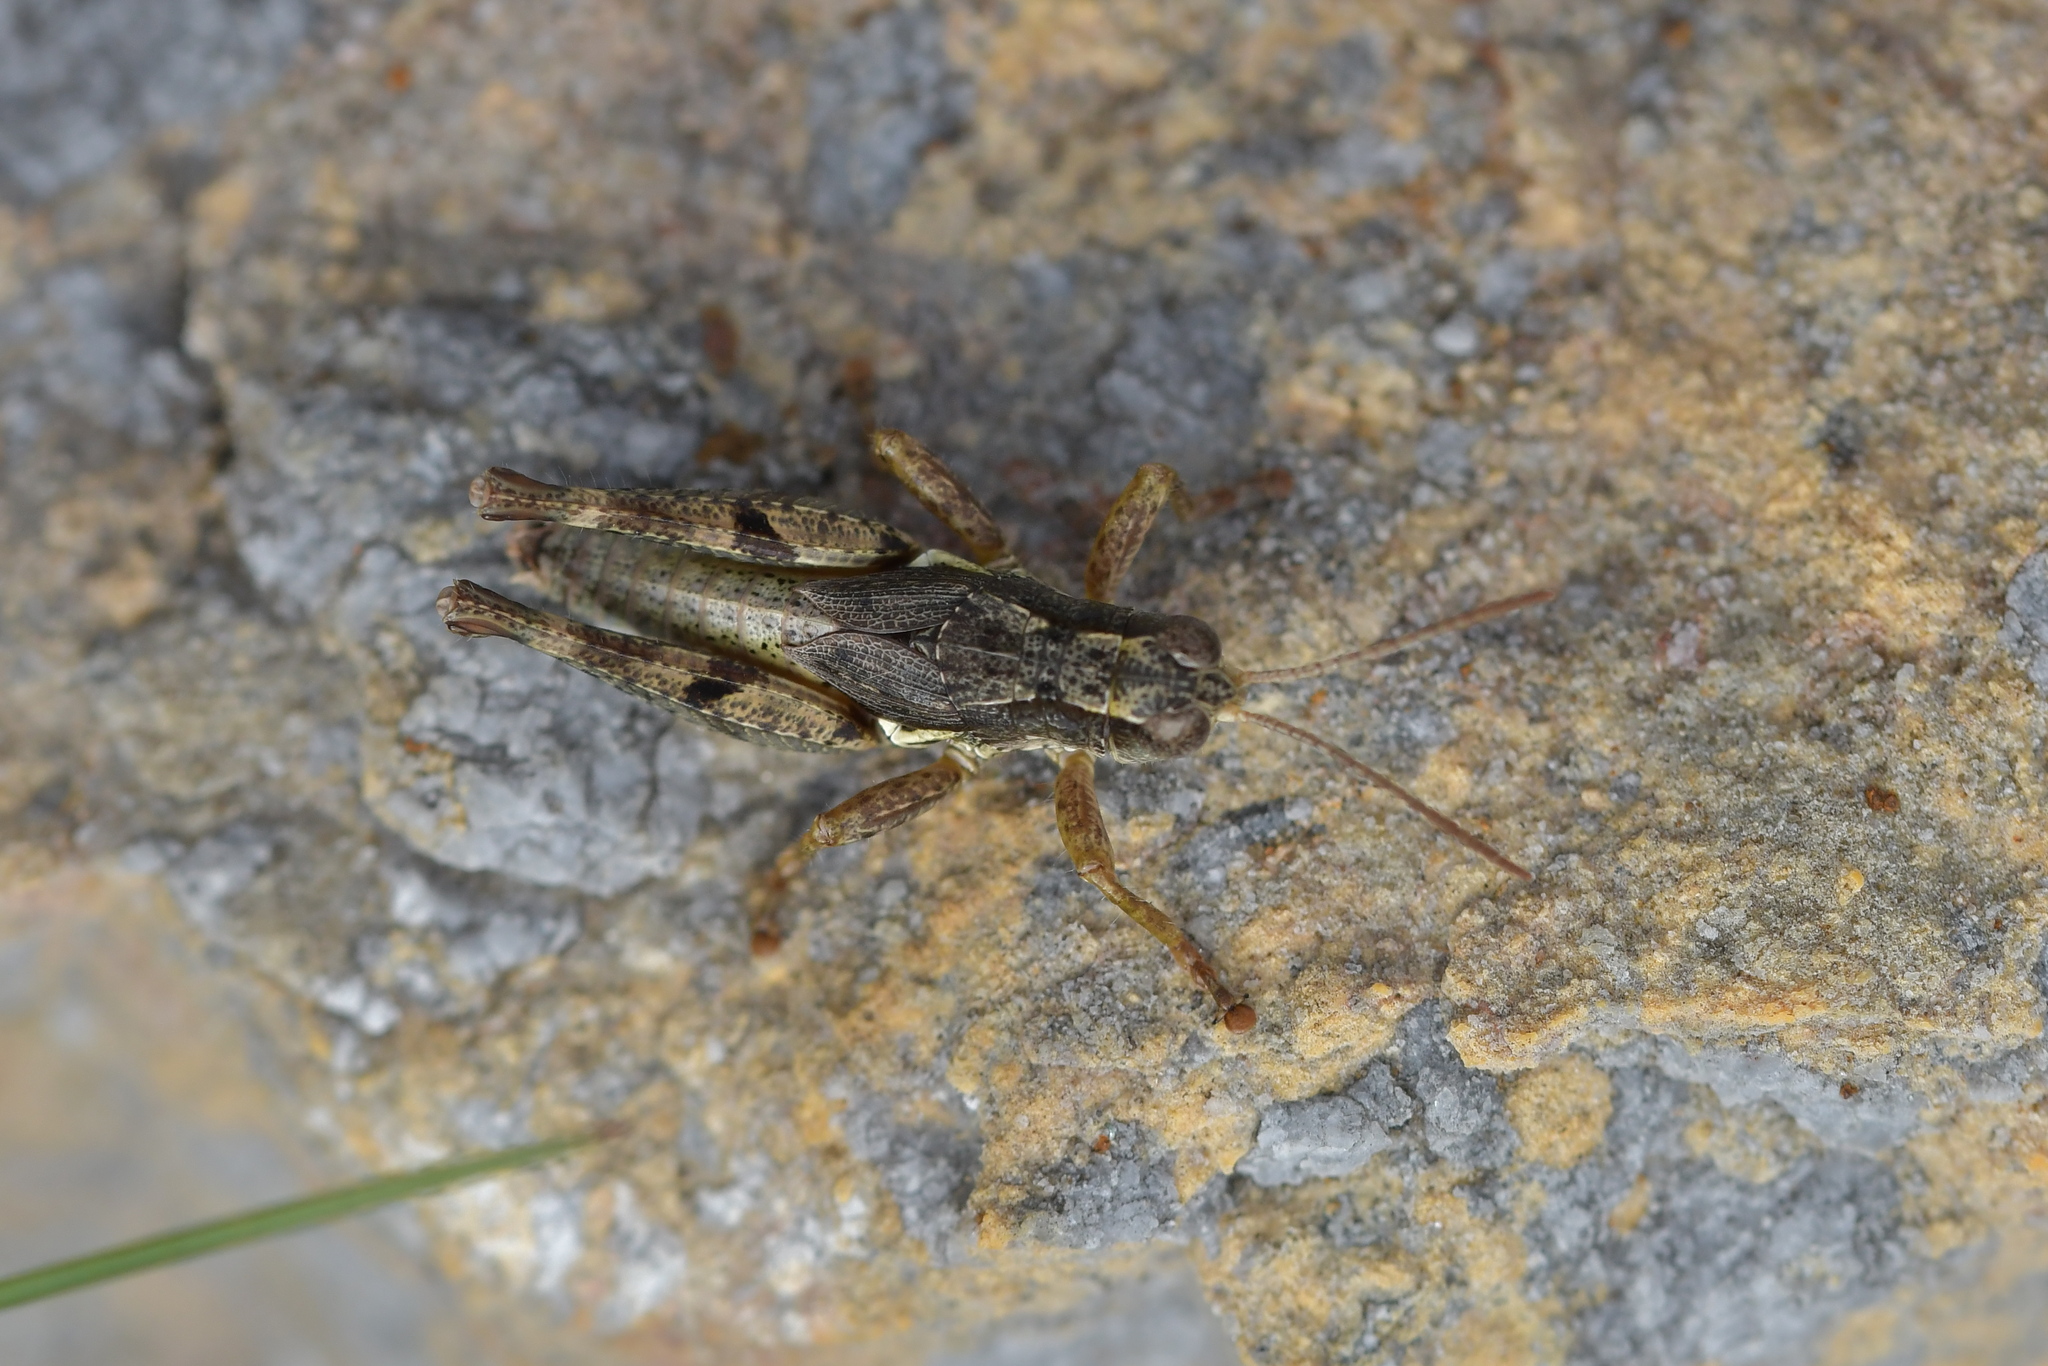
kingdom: Animalia
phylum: Arthropoda
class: Insecta
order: Orthoptera
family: Acrididae
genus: Phaulacridium
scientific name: Phaulacridium marginale
